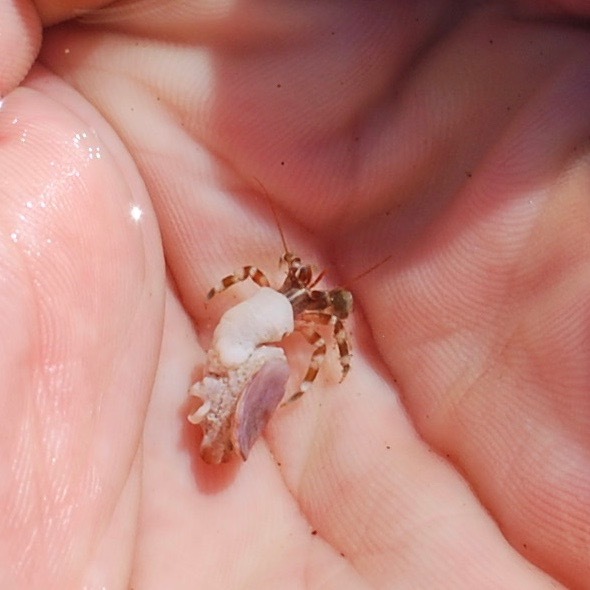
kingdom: Animalia
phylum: Arthropoda
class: Malacostraca
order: Decapoda
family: Paguridae
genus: Pagurus
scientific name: Pagurus samuelis
